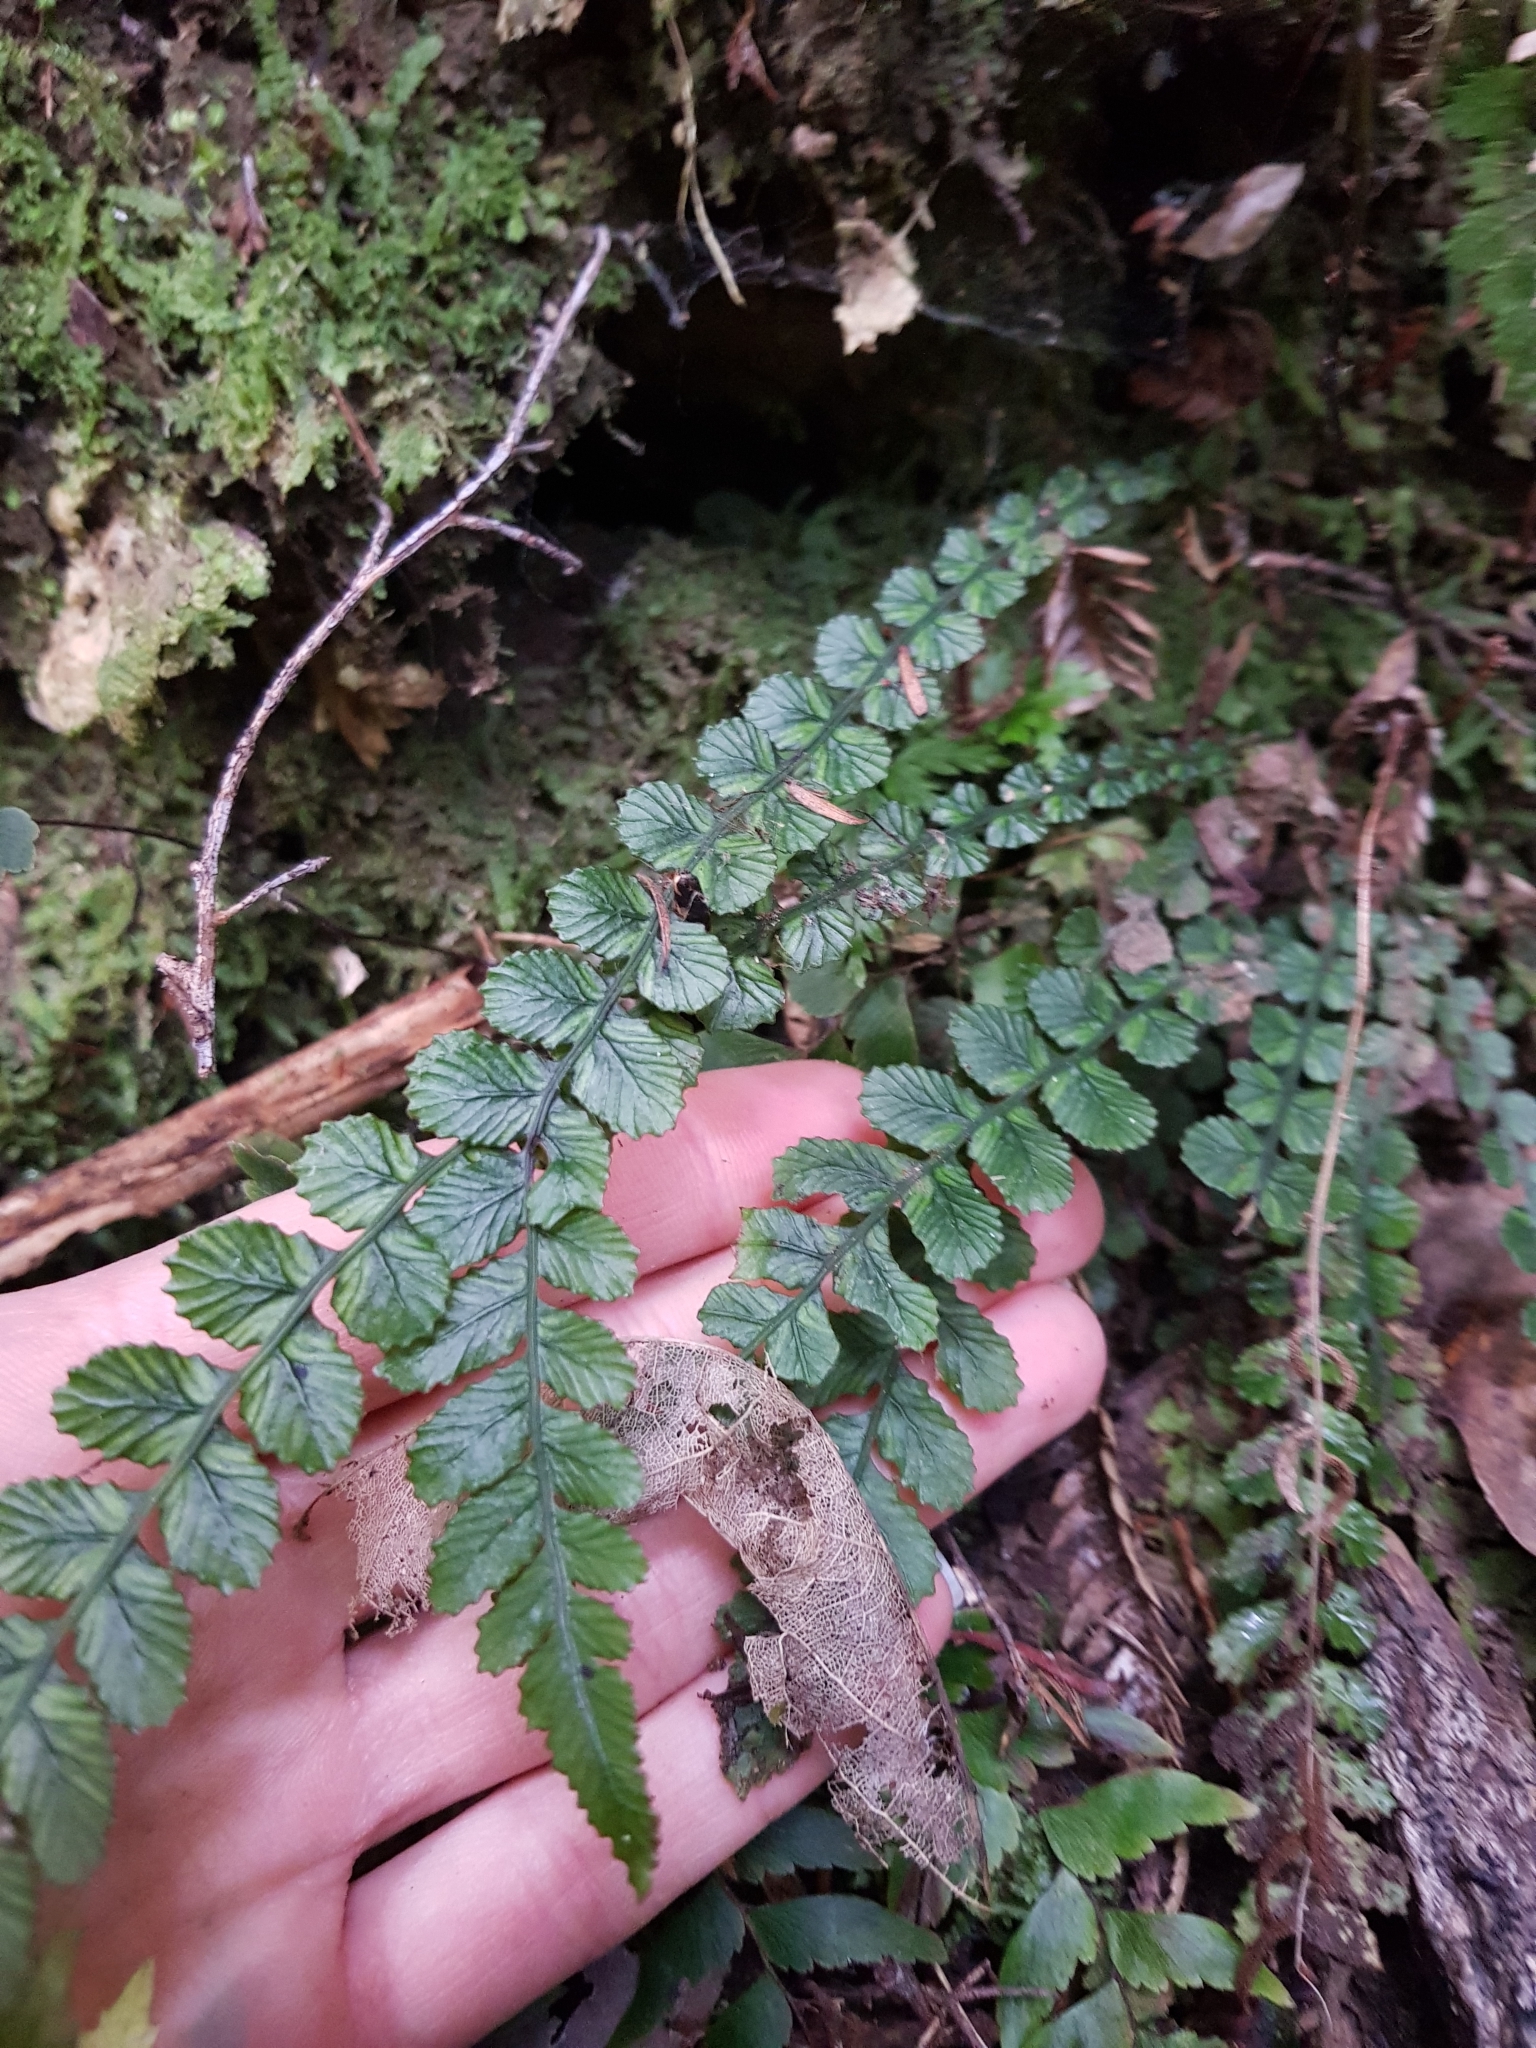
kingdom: Plantae
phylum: Tracheophyta
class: Polypodiopsida
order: Polypodiales
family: Blechnaceae
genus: Austroblechnum
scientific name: Austroblechnum membranaceum
